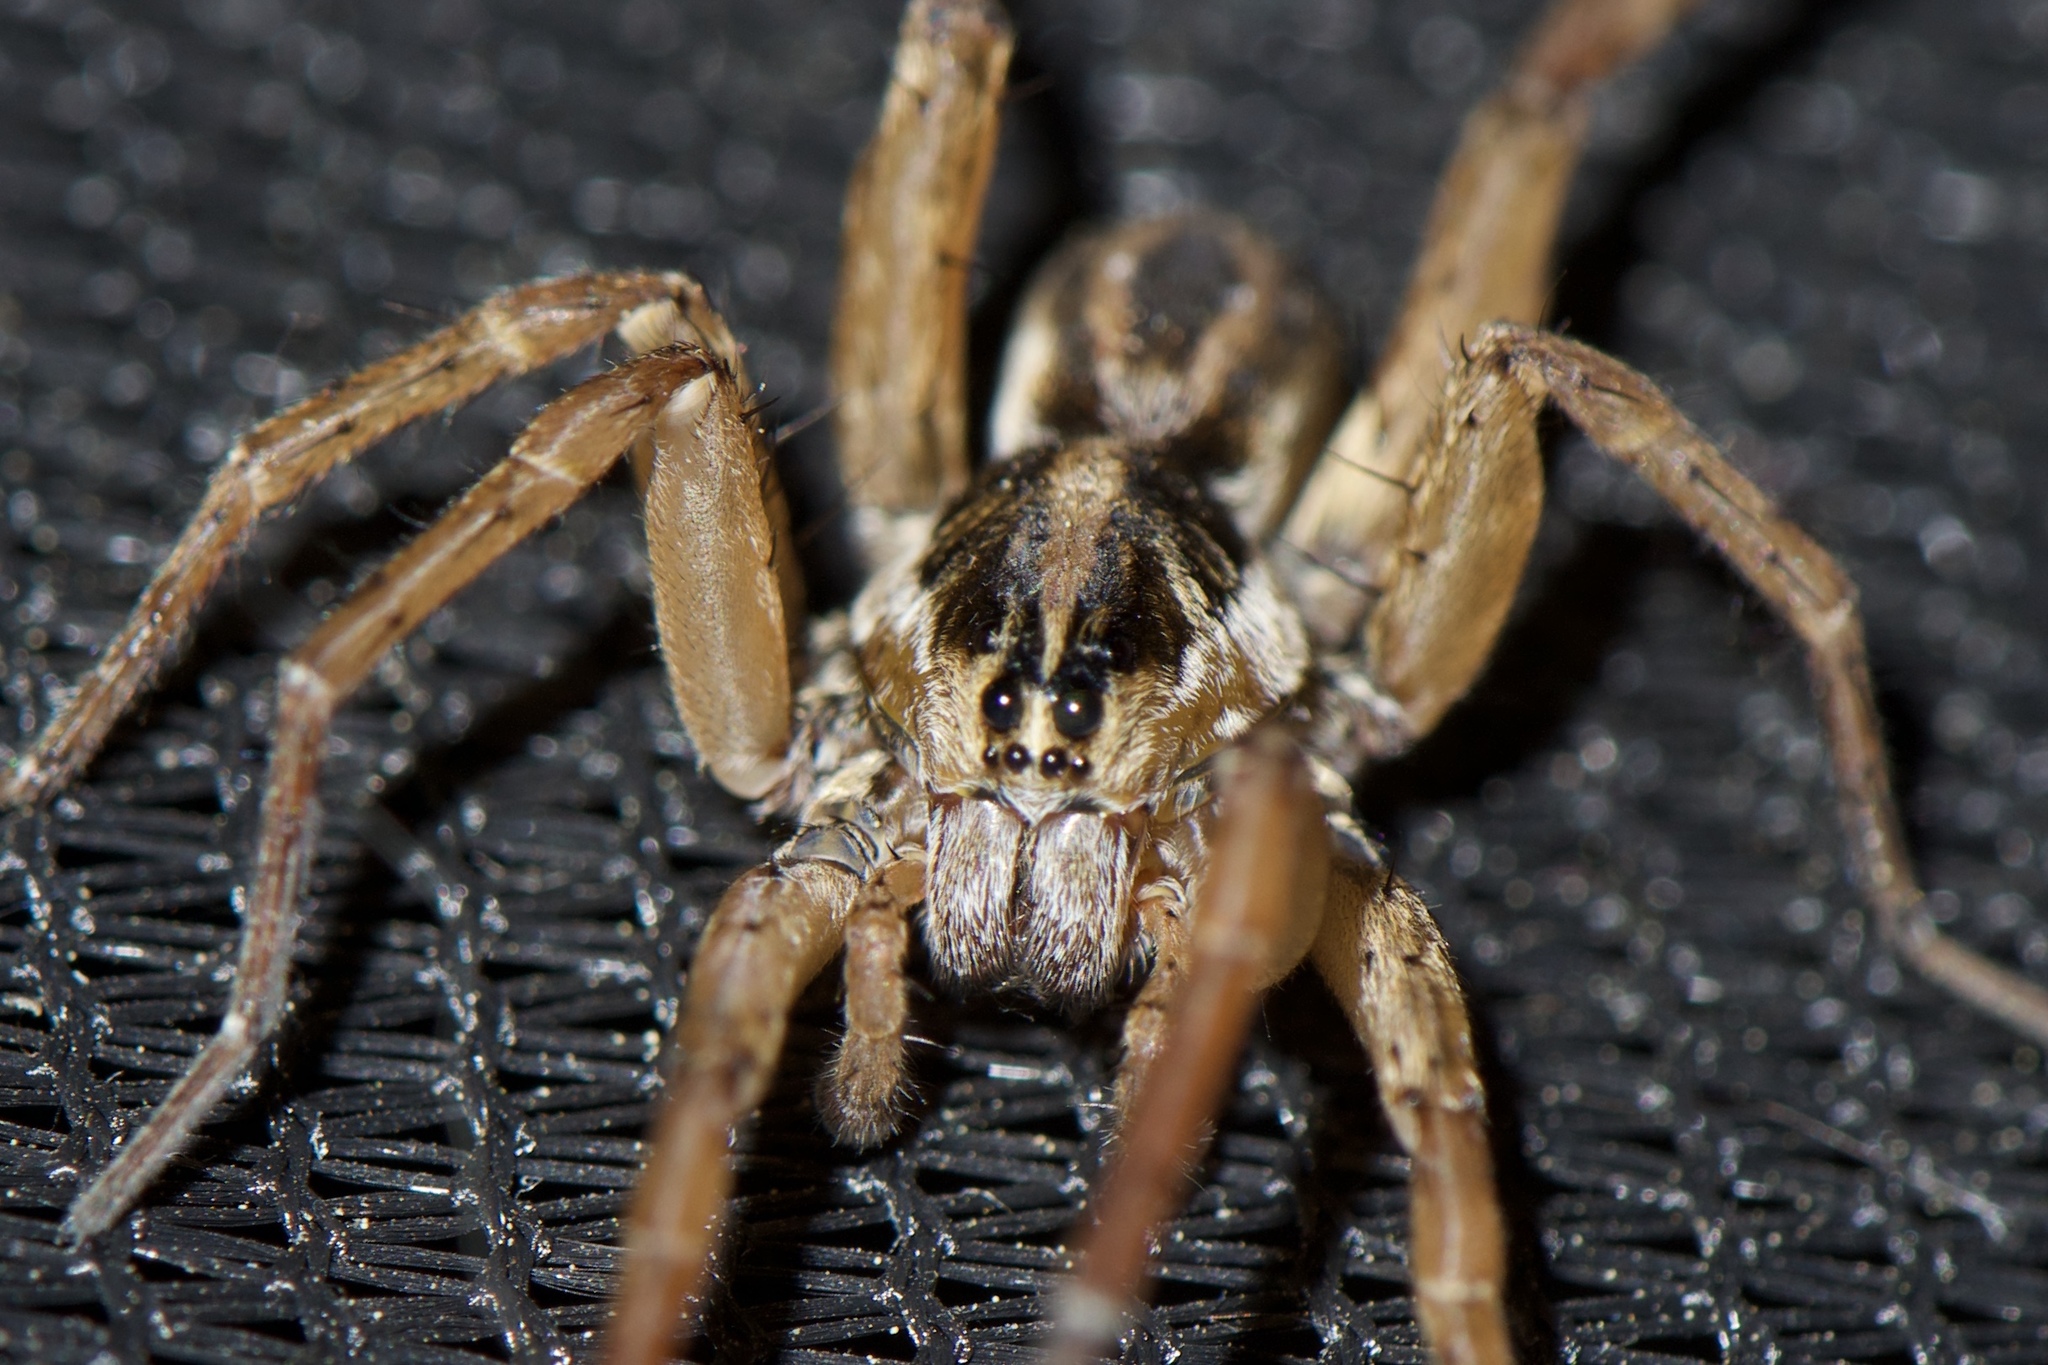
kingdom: Animalia
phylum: Arthropoda
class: Arachnida
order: Araneae
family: Lycosidae
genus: Tigrosa
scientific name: Tigrosa annexa
